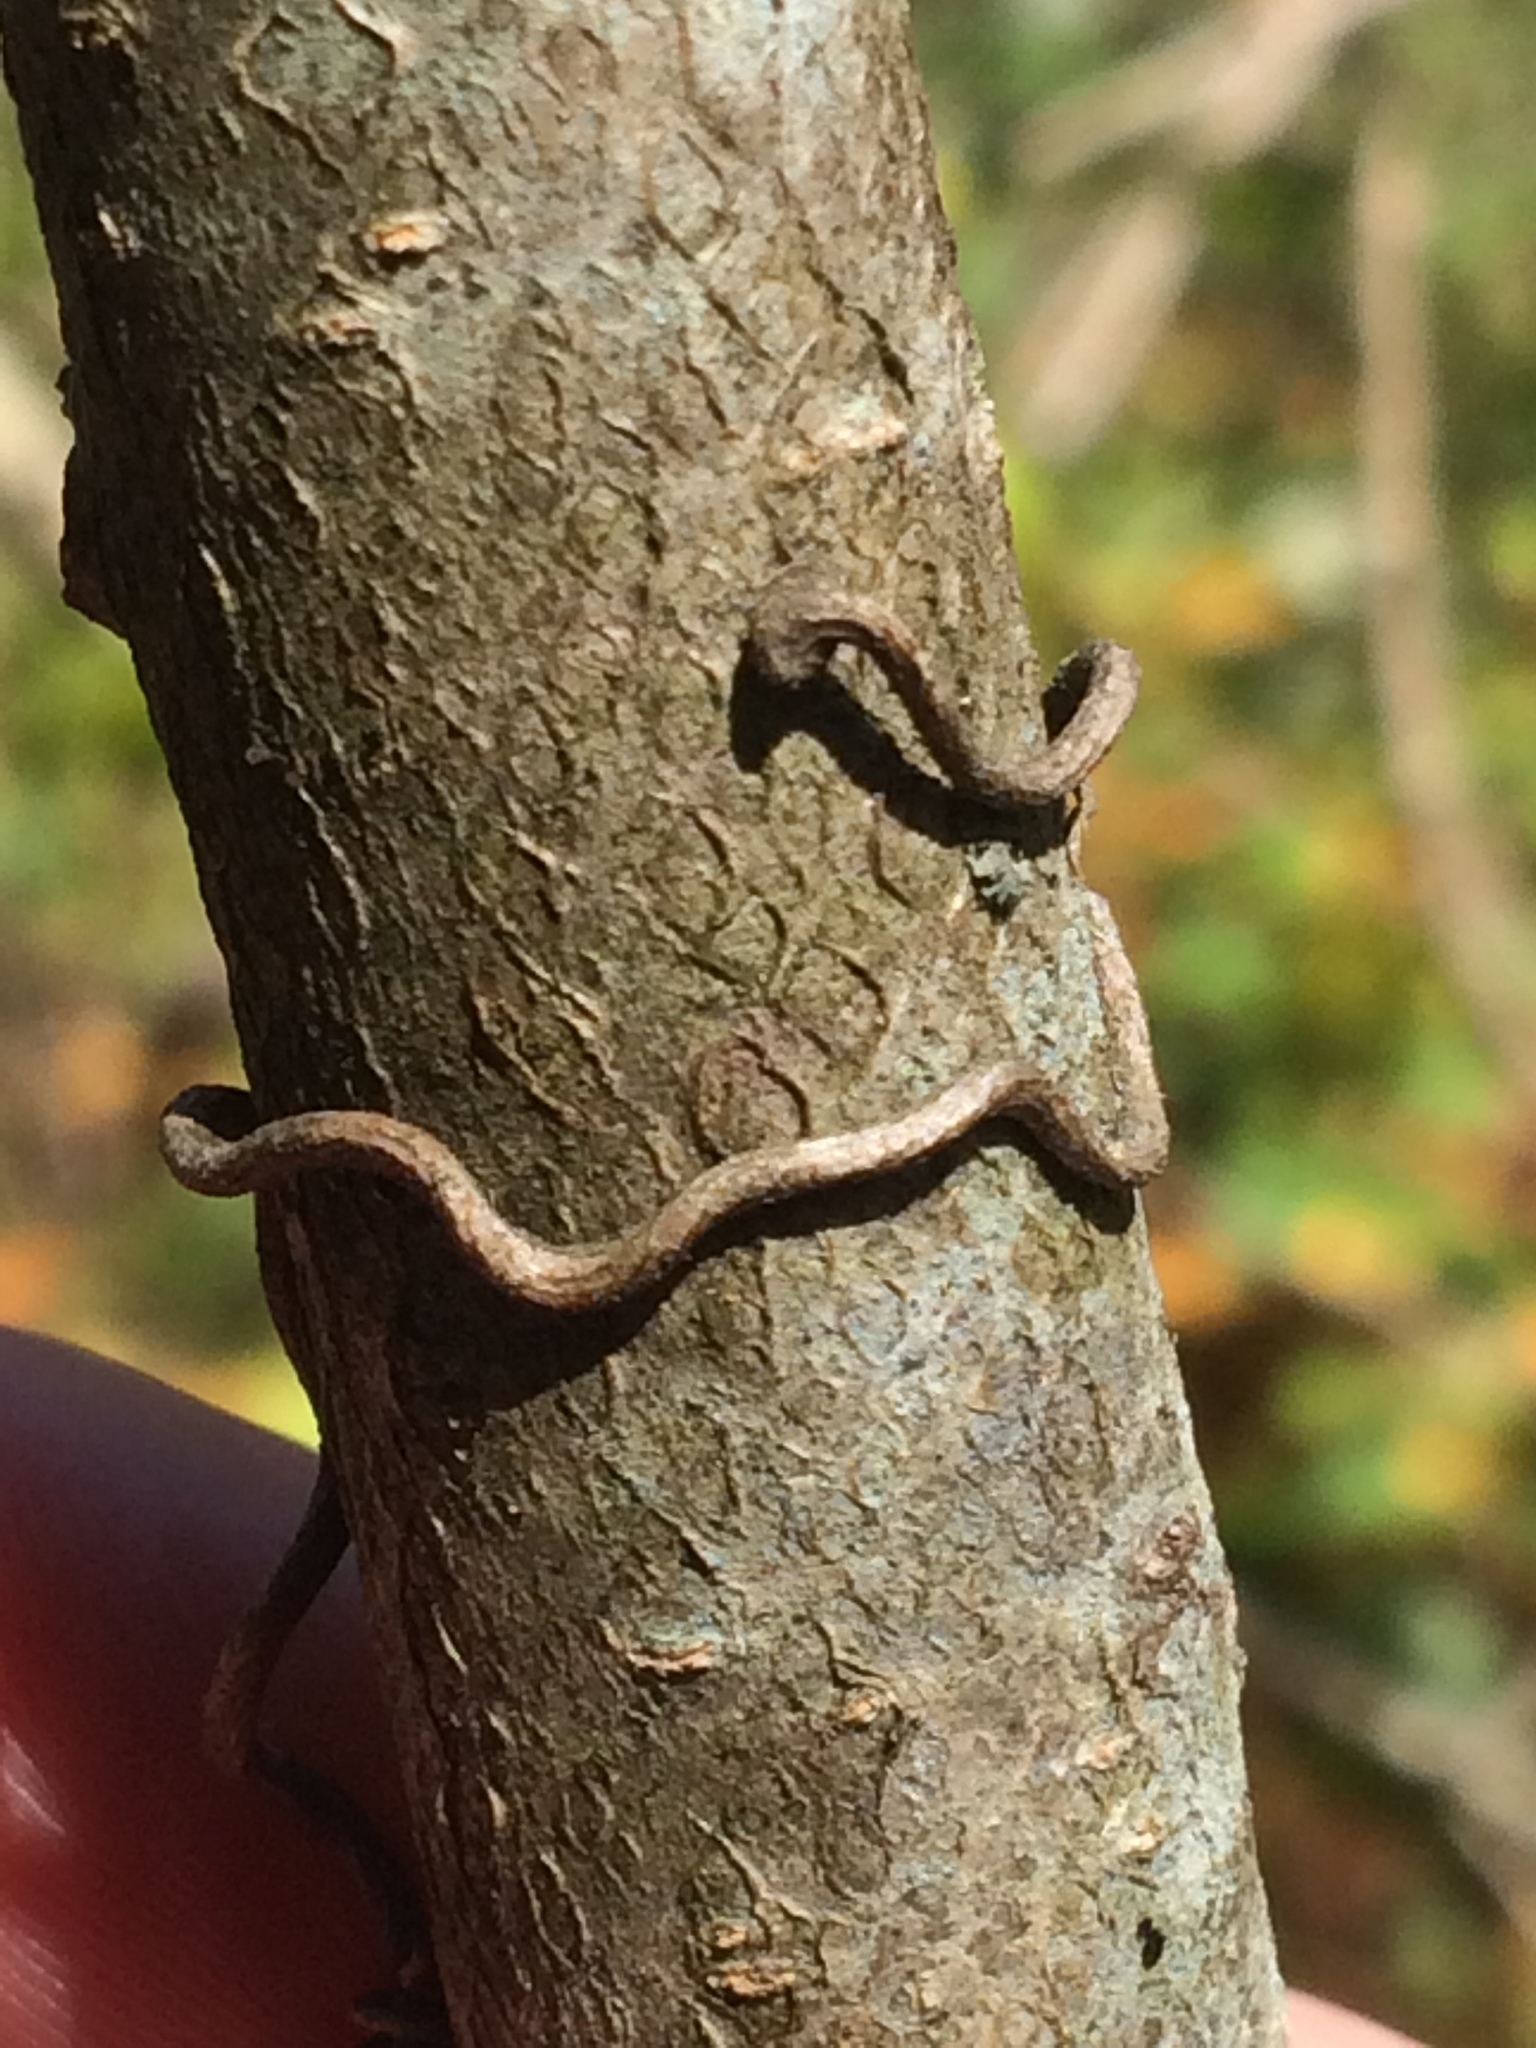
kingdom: Plantae
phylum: Tracheophyta
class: Magnoliopsida
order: Vitales
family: Vitaceae
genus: Parthenocissus
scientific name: Parthenocissus quinquefolia
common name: Virginia-creeper
